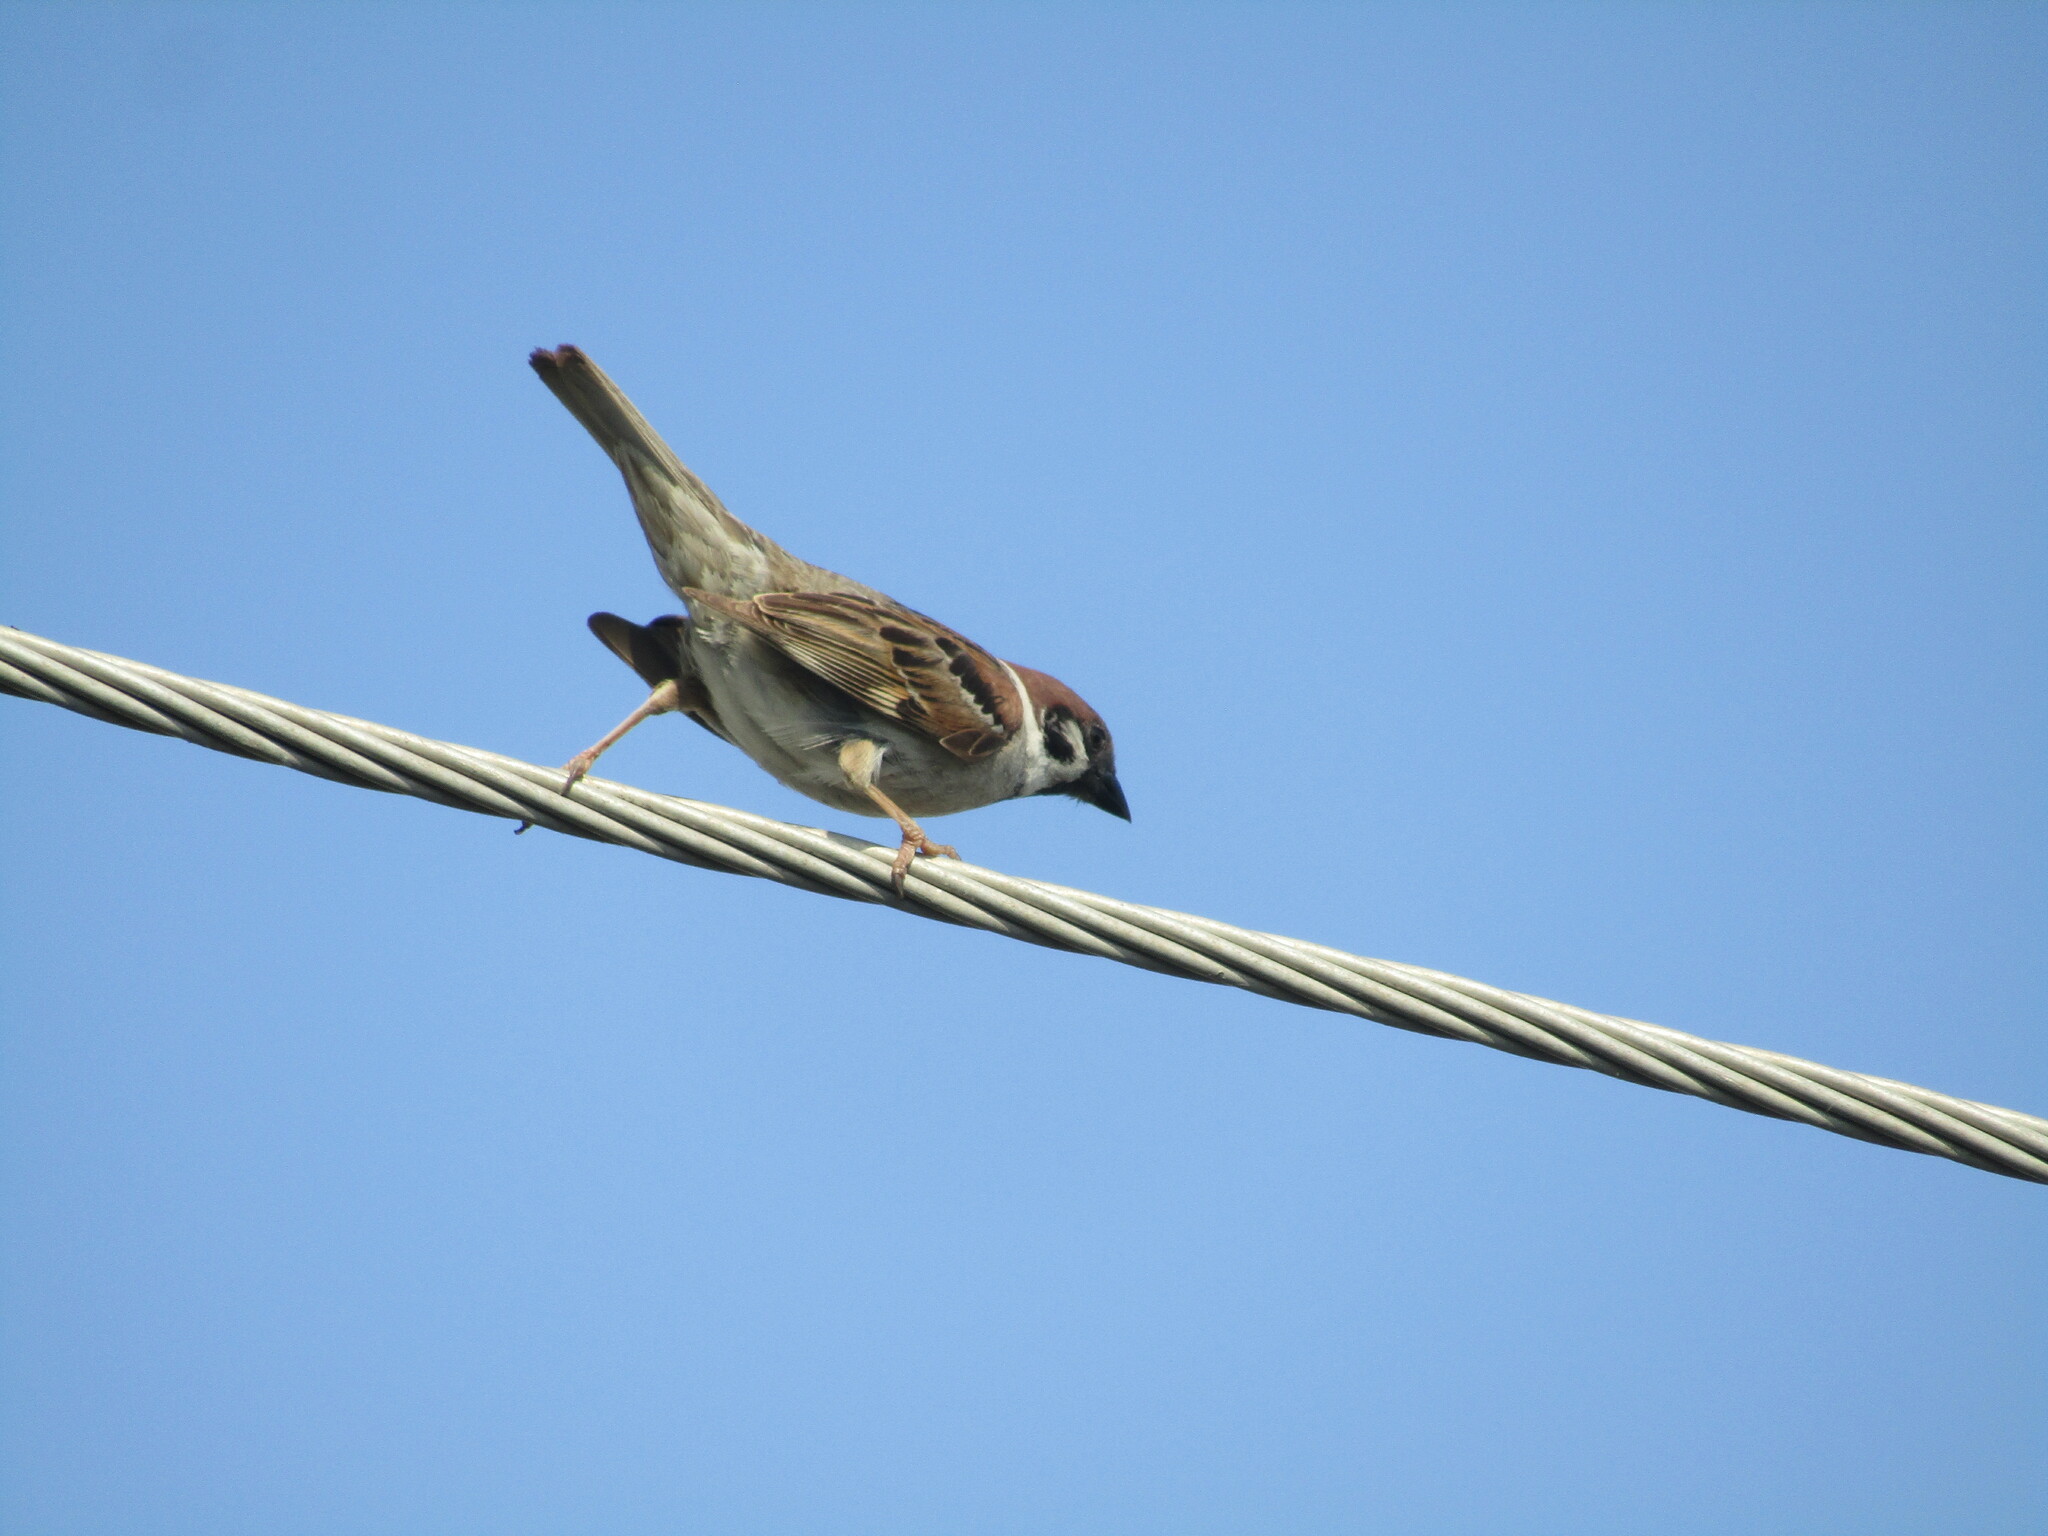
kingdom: Animalia
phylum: Chordata
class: Aves
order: Passeriformes
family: Passeridae
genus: Passer
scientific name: Passer montanus
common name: Eurasian tree sparrow
